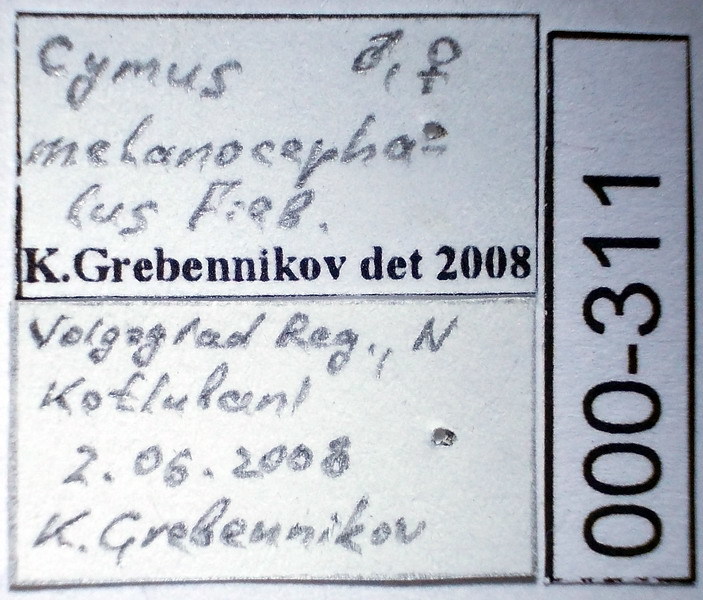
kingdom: Animalia
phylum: Arthropoda
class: Insecta
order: Hemiptera
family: Cymidae
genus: Cymus
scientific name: Cymus melanocephalus
